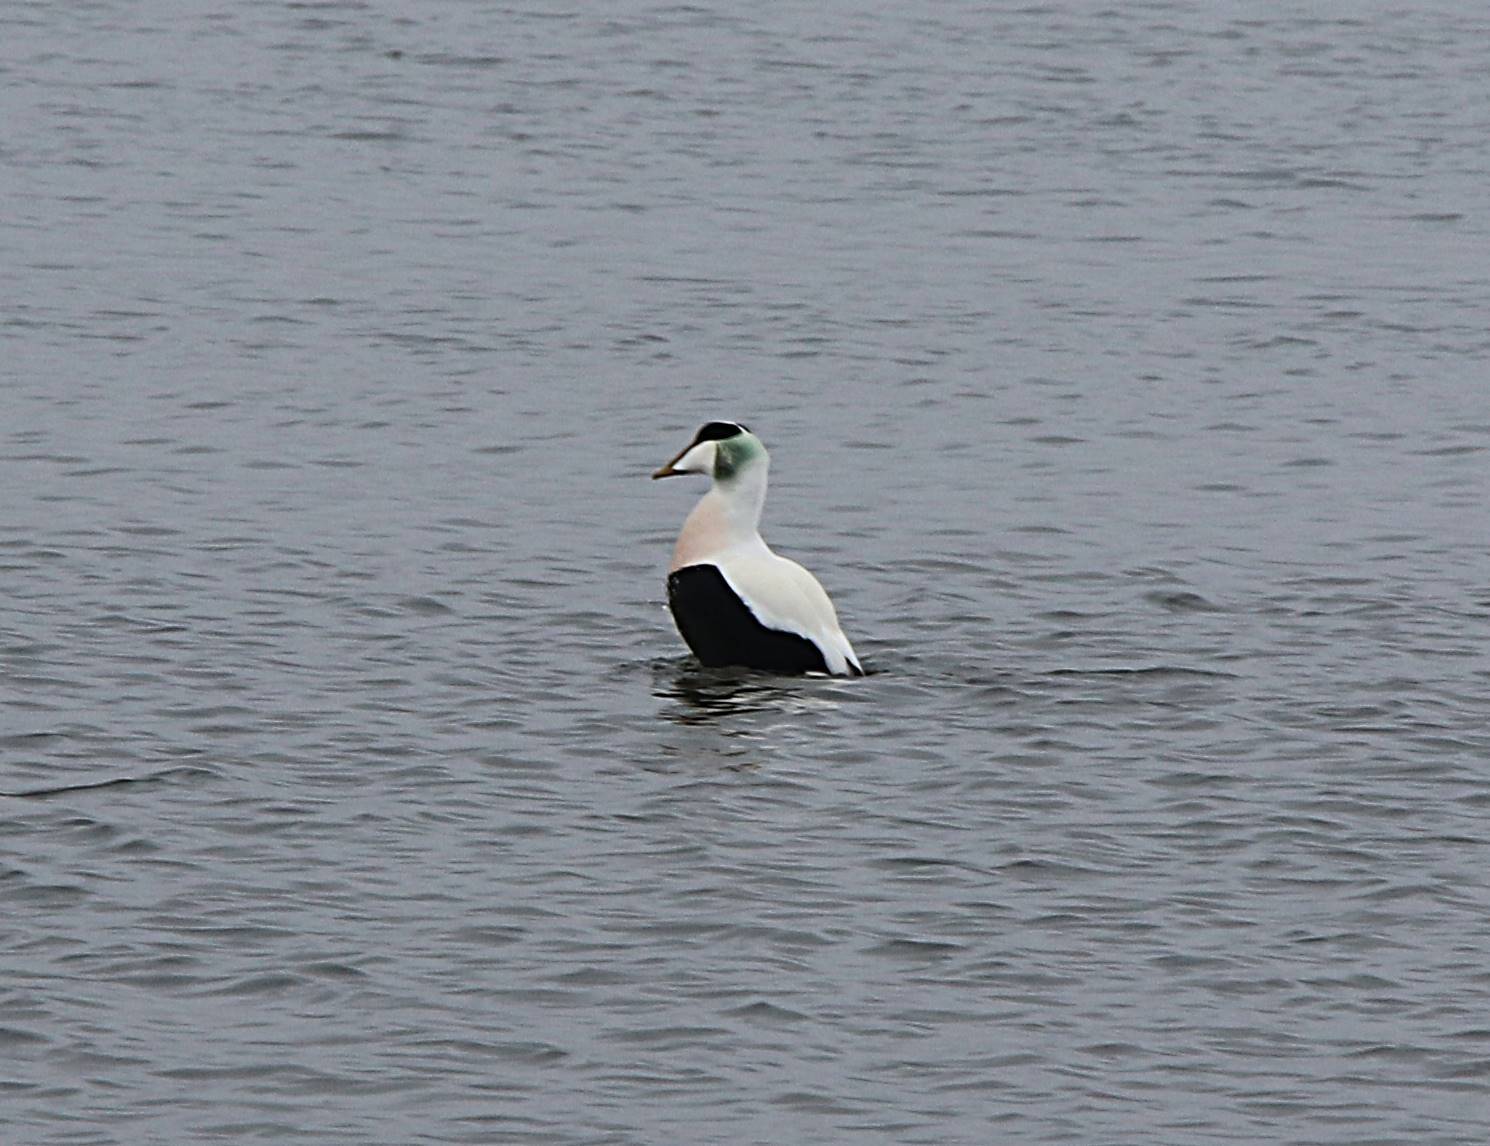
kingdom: Animalia
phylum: Chordata
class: Aves
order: Anseriformes
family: Anatidae
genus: Somateria
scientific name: Somateria mollissima
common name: Common eider
